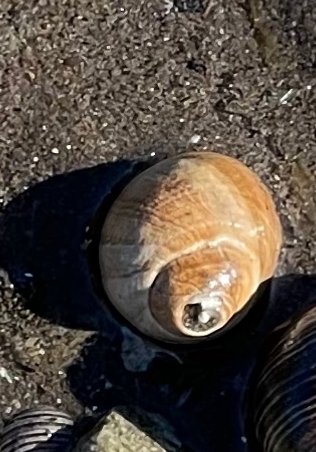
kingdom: Animalia
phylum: Mollusca
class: Gastropoda
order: Littorinimorpha
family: Littorinidae
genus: Littorina
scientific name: Littorina littorea
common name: Common periwinkle
